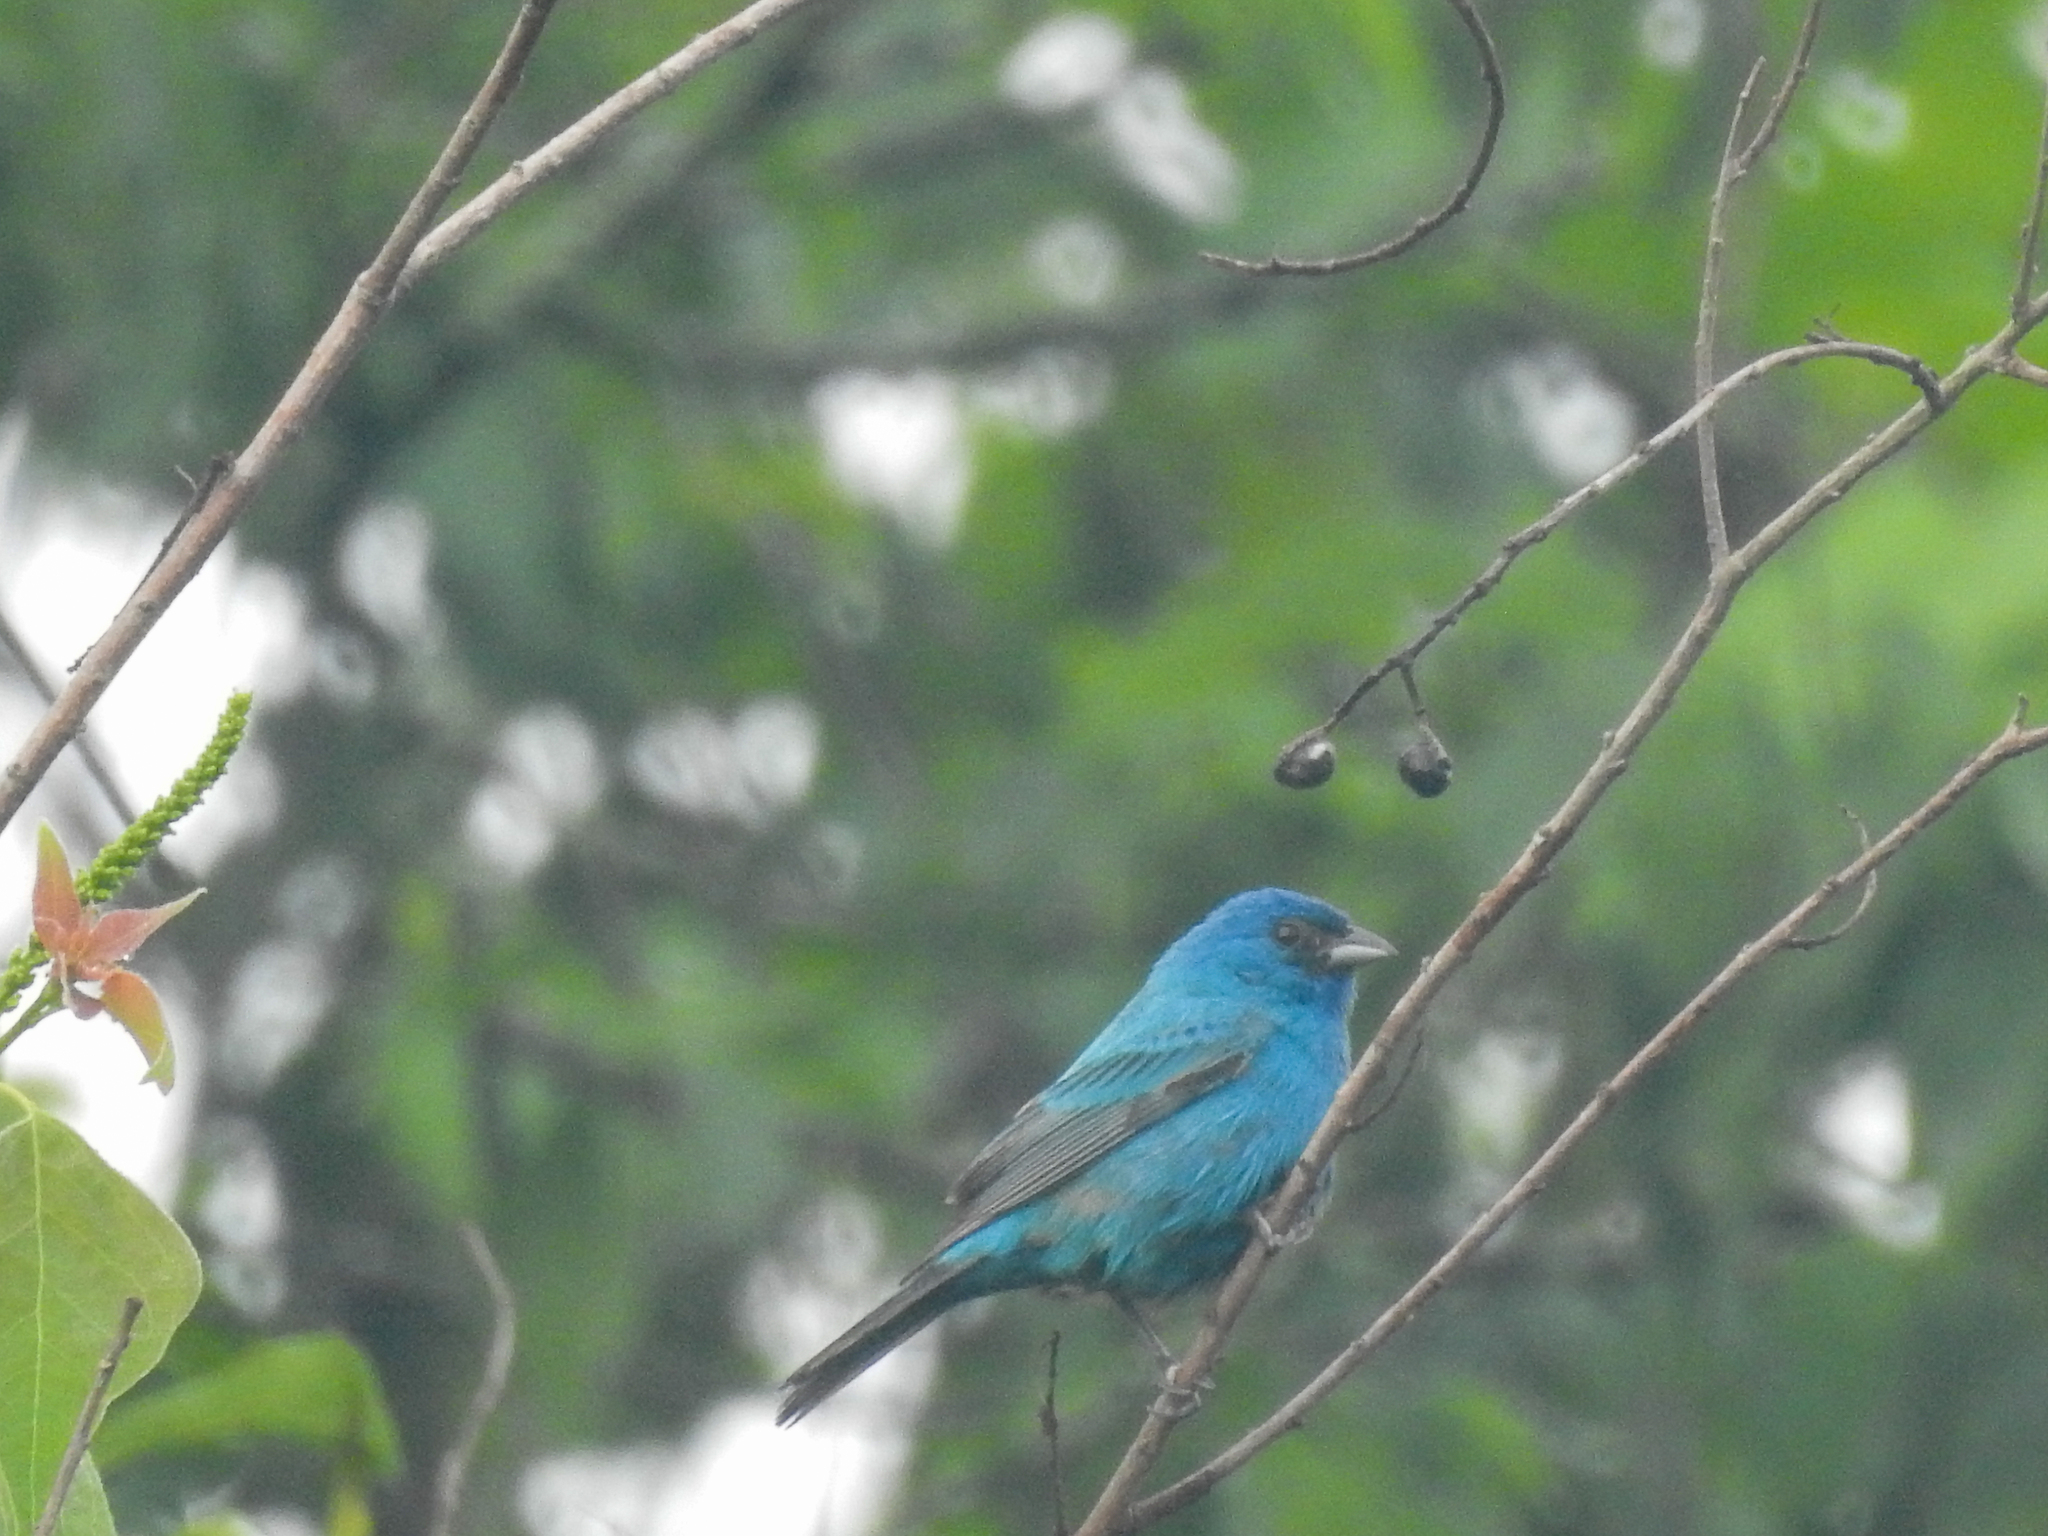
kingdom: Animalia
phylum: Chordata
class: Aves
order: Passeriformes
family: Cardinalidae
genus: Passerina
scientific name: Passerina cyanea
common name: Indigo bunting
